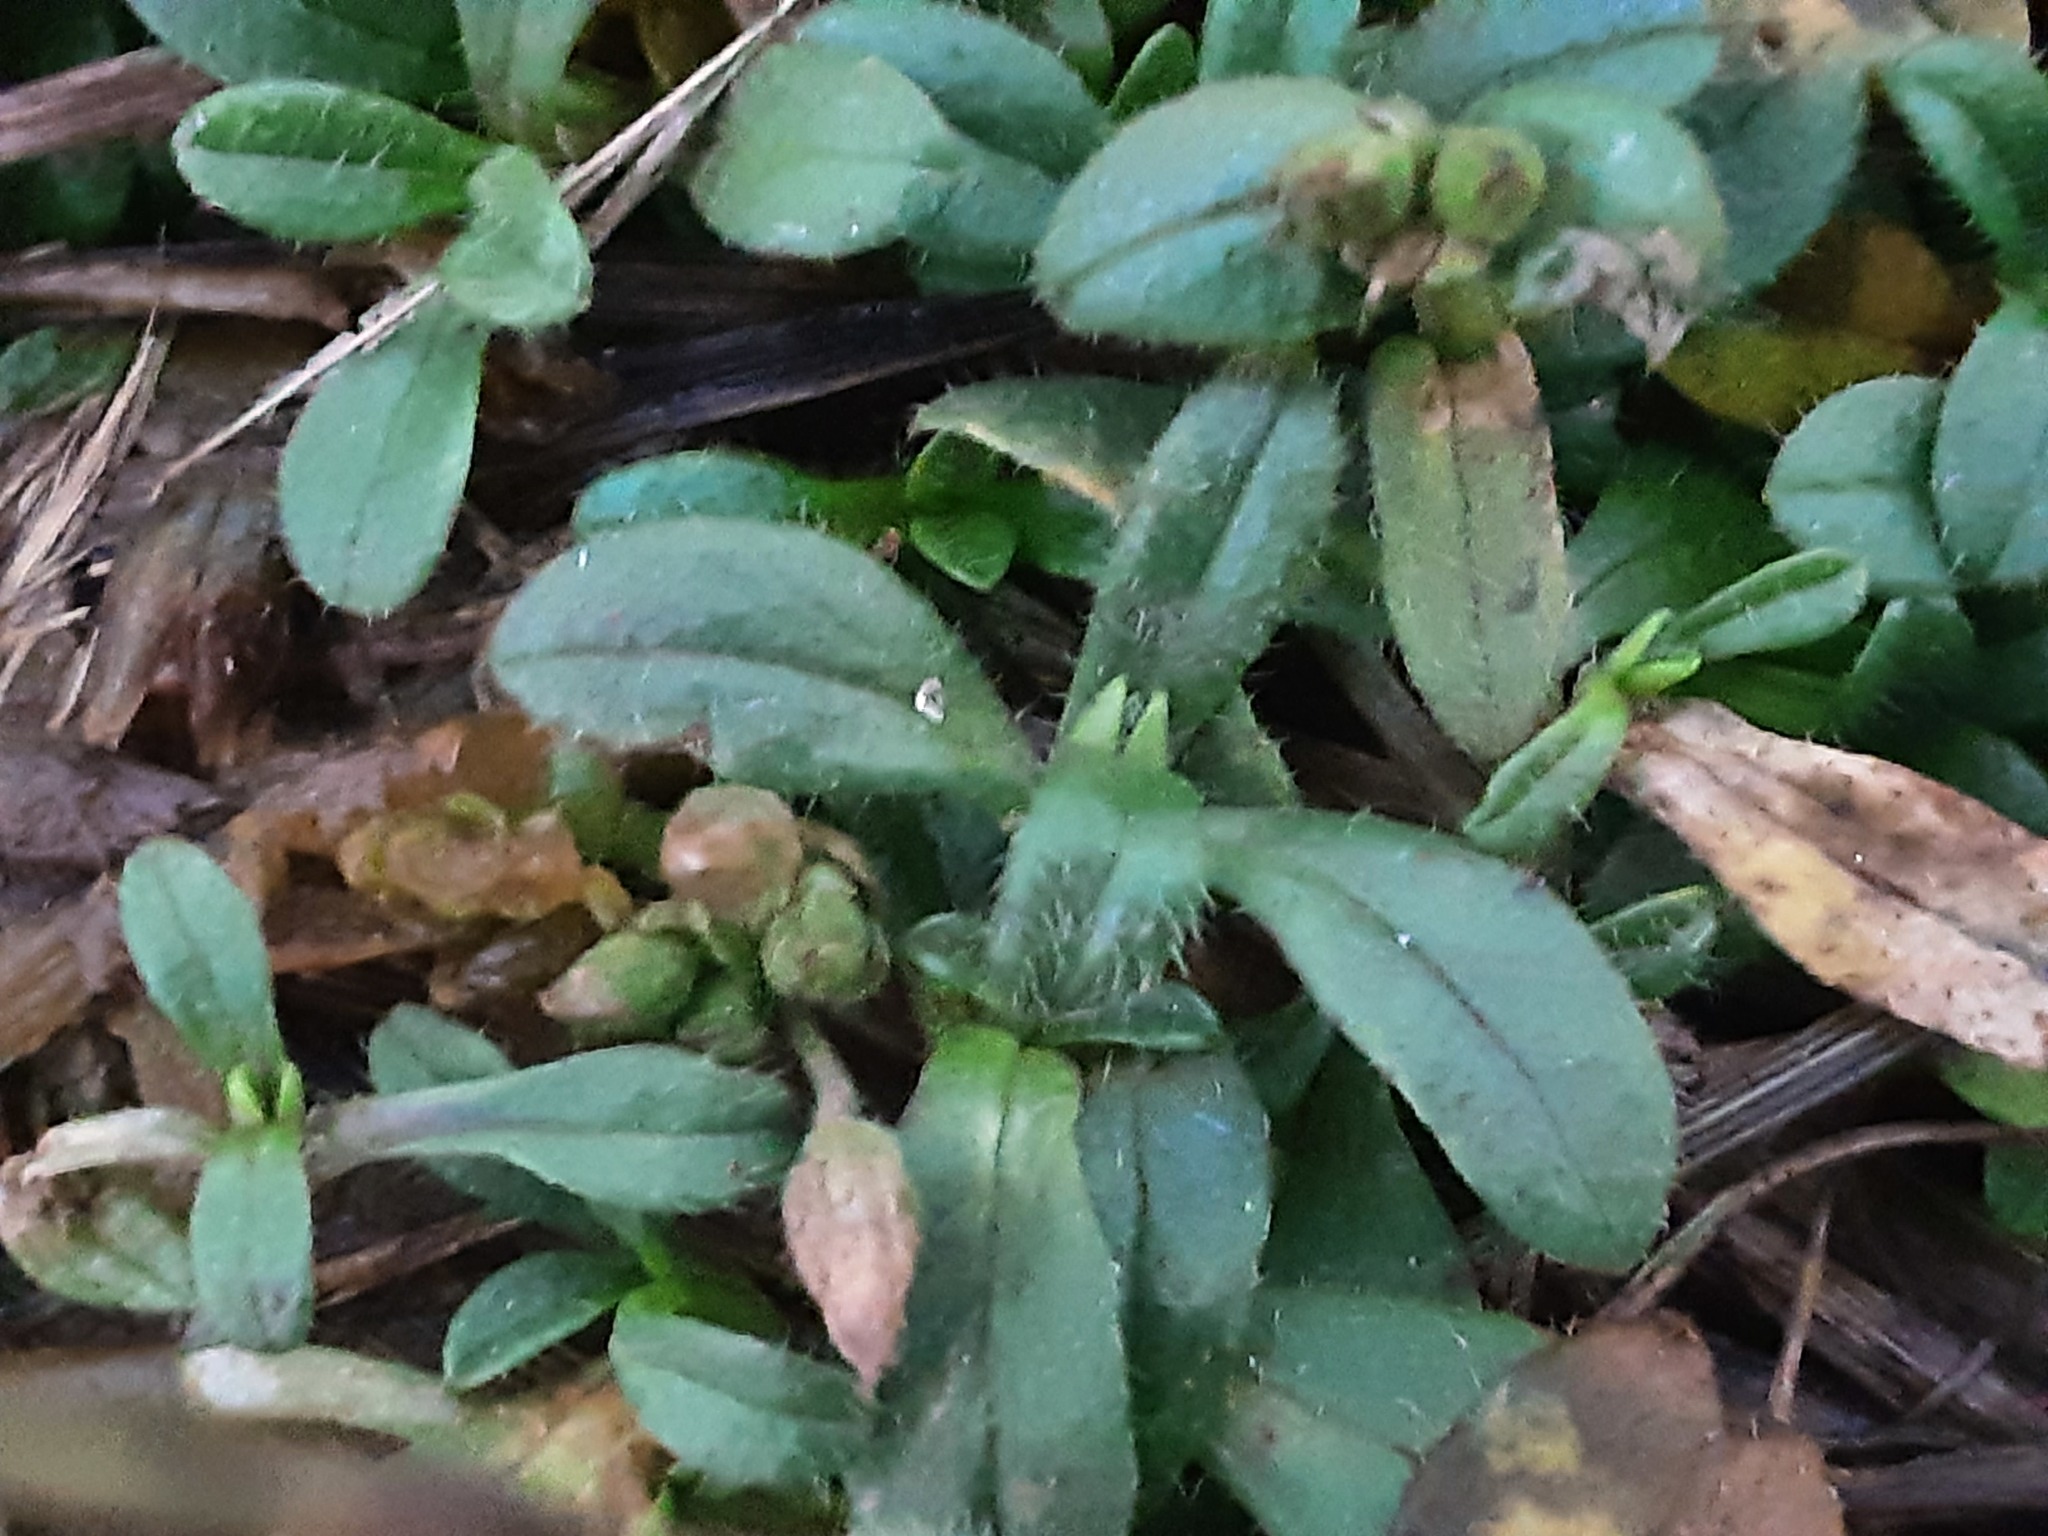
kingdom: Plantae
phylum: Tracheophyta
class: Magnoliopsida
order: Caryophyllales
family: Caryophyllaceae
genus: Cerastium
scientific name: Cerastium holosteoides
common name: Big chickweed
